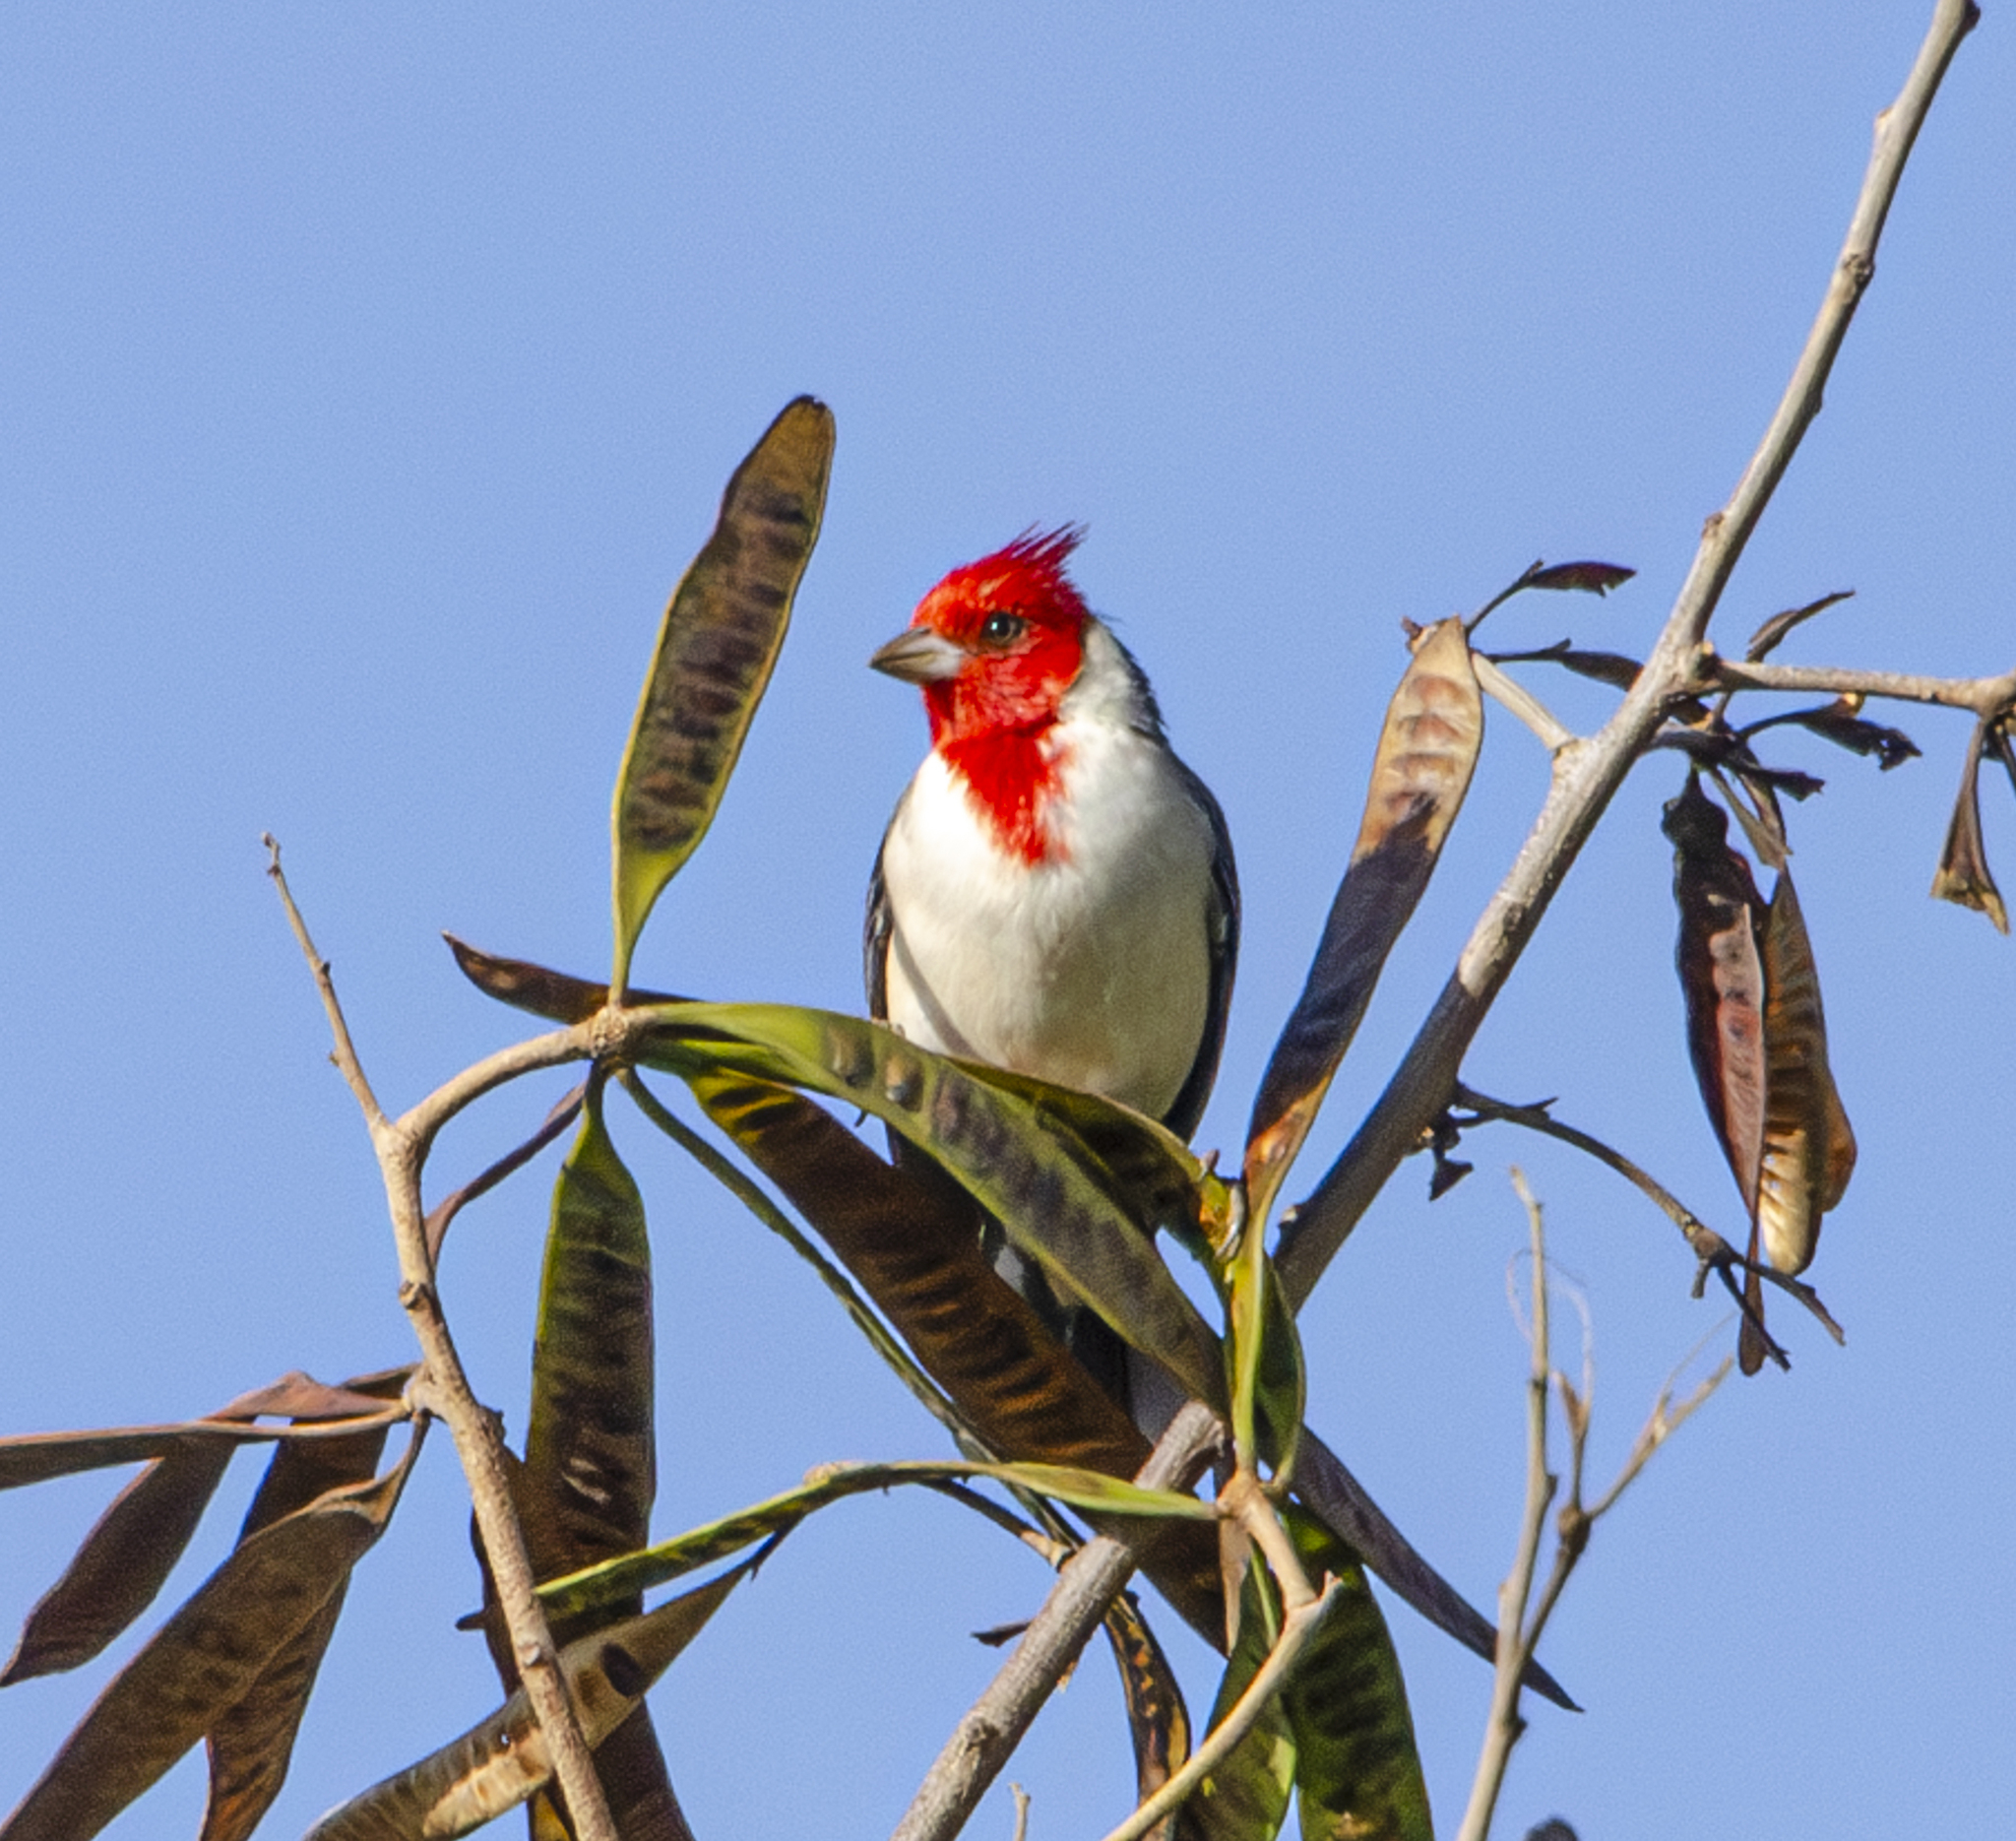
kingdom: Animalia
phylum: Chordata
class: Aves
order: Passeriformes
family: Thraupidae
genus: Paroaria
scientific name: Paroaria coronata
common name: Red-crested cardinal
